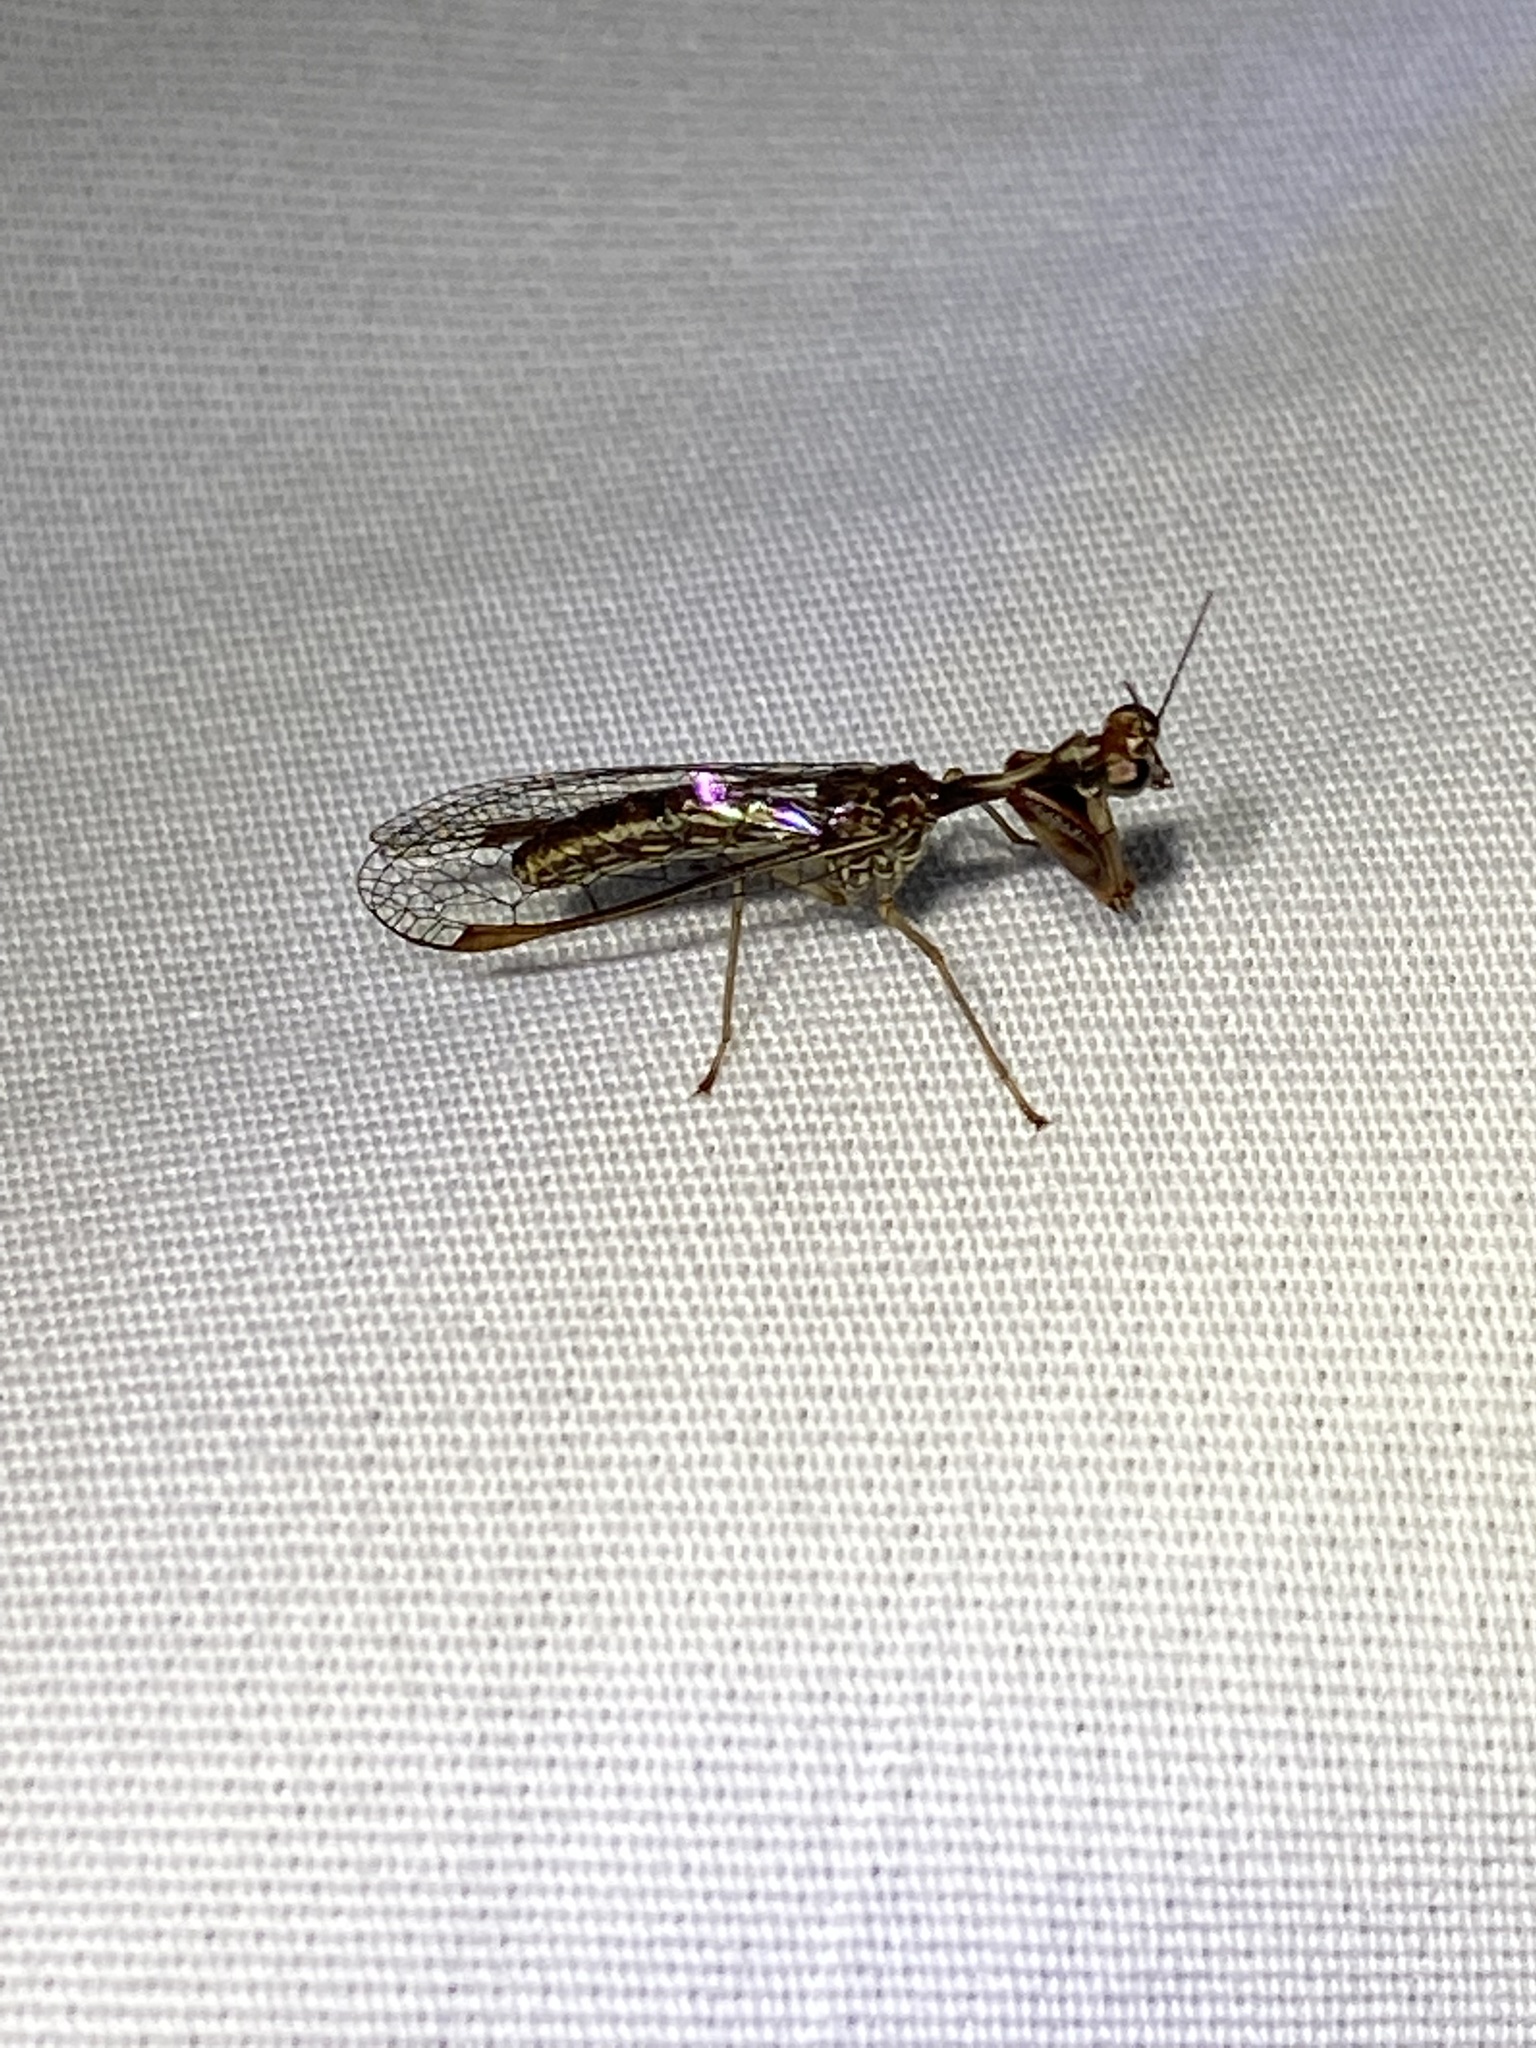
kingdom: Animalia
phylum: Arthropoda
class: Insecta
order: Neuroptera
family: Mantispidae
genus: Leptomantispa
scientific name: Leptomantispa pulchella
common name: Stevens's mantidfly
